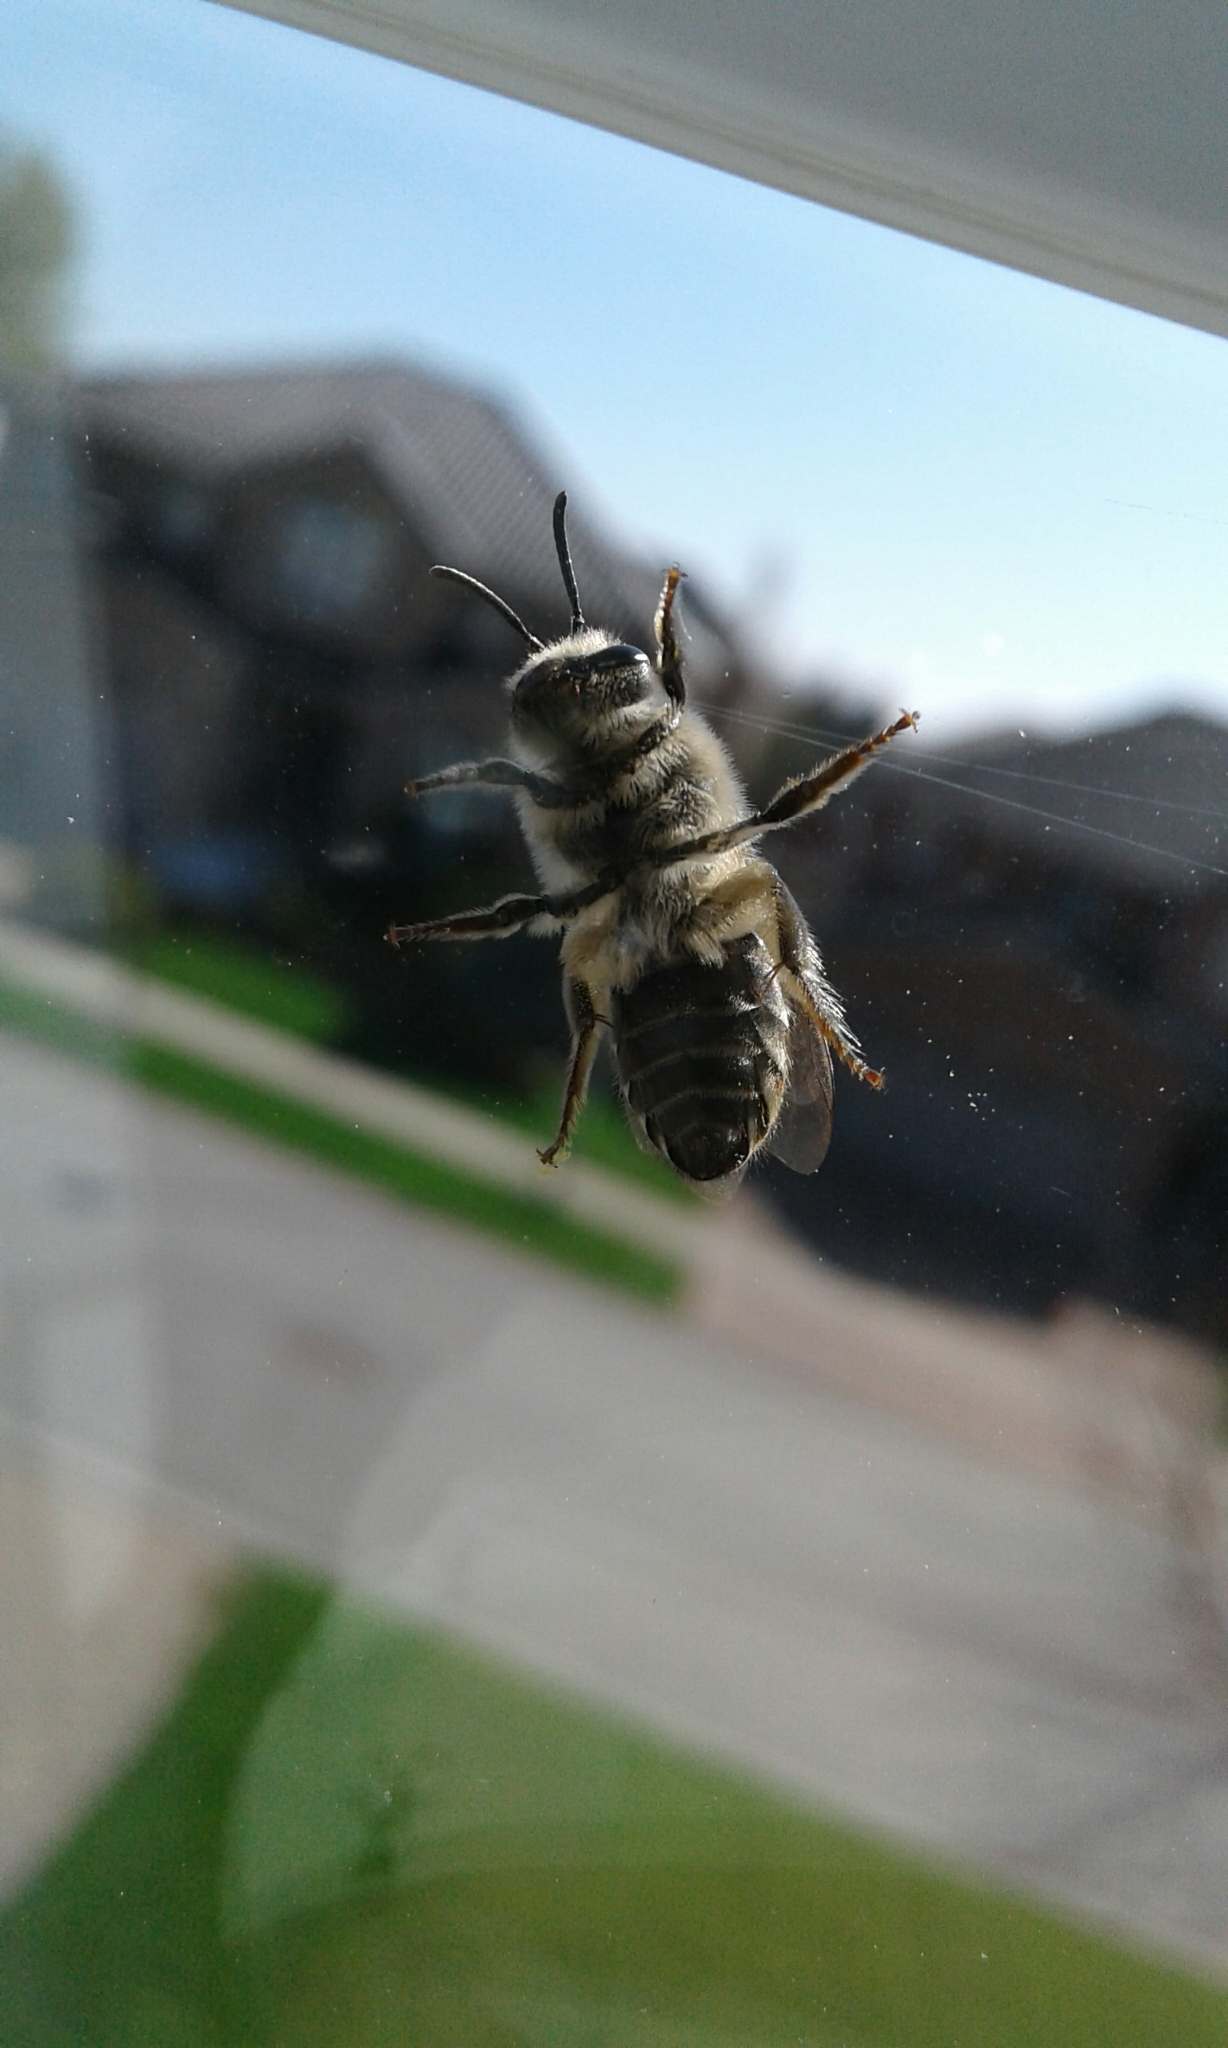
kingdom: Animalia
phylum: Arthropoda
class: Insecta
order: Hymenoptera
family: Colletidae
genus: Colletes
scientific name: Colletes inaequalis
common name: Unequal cellophane bee
